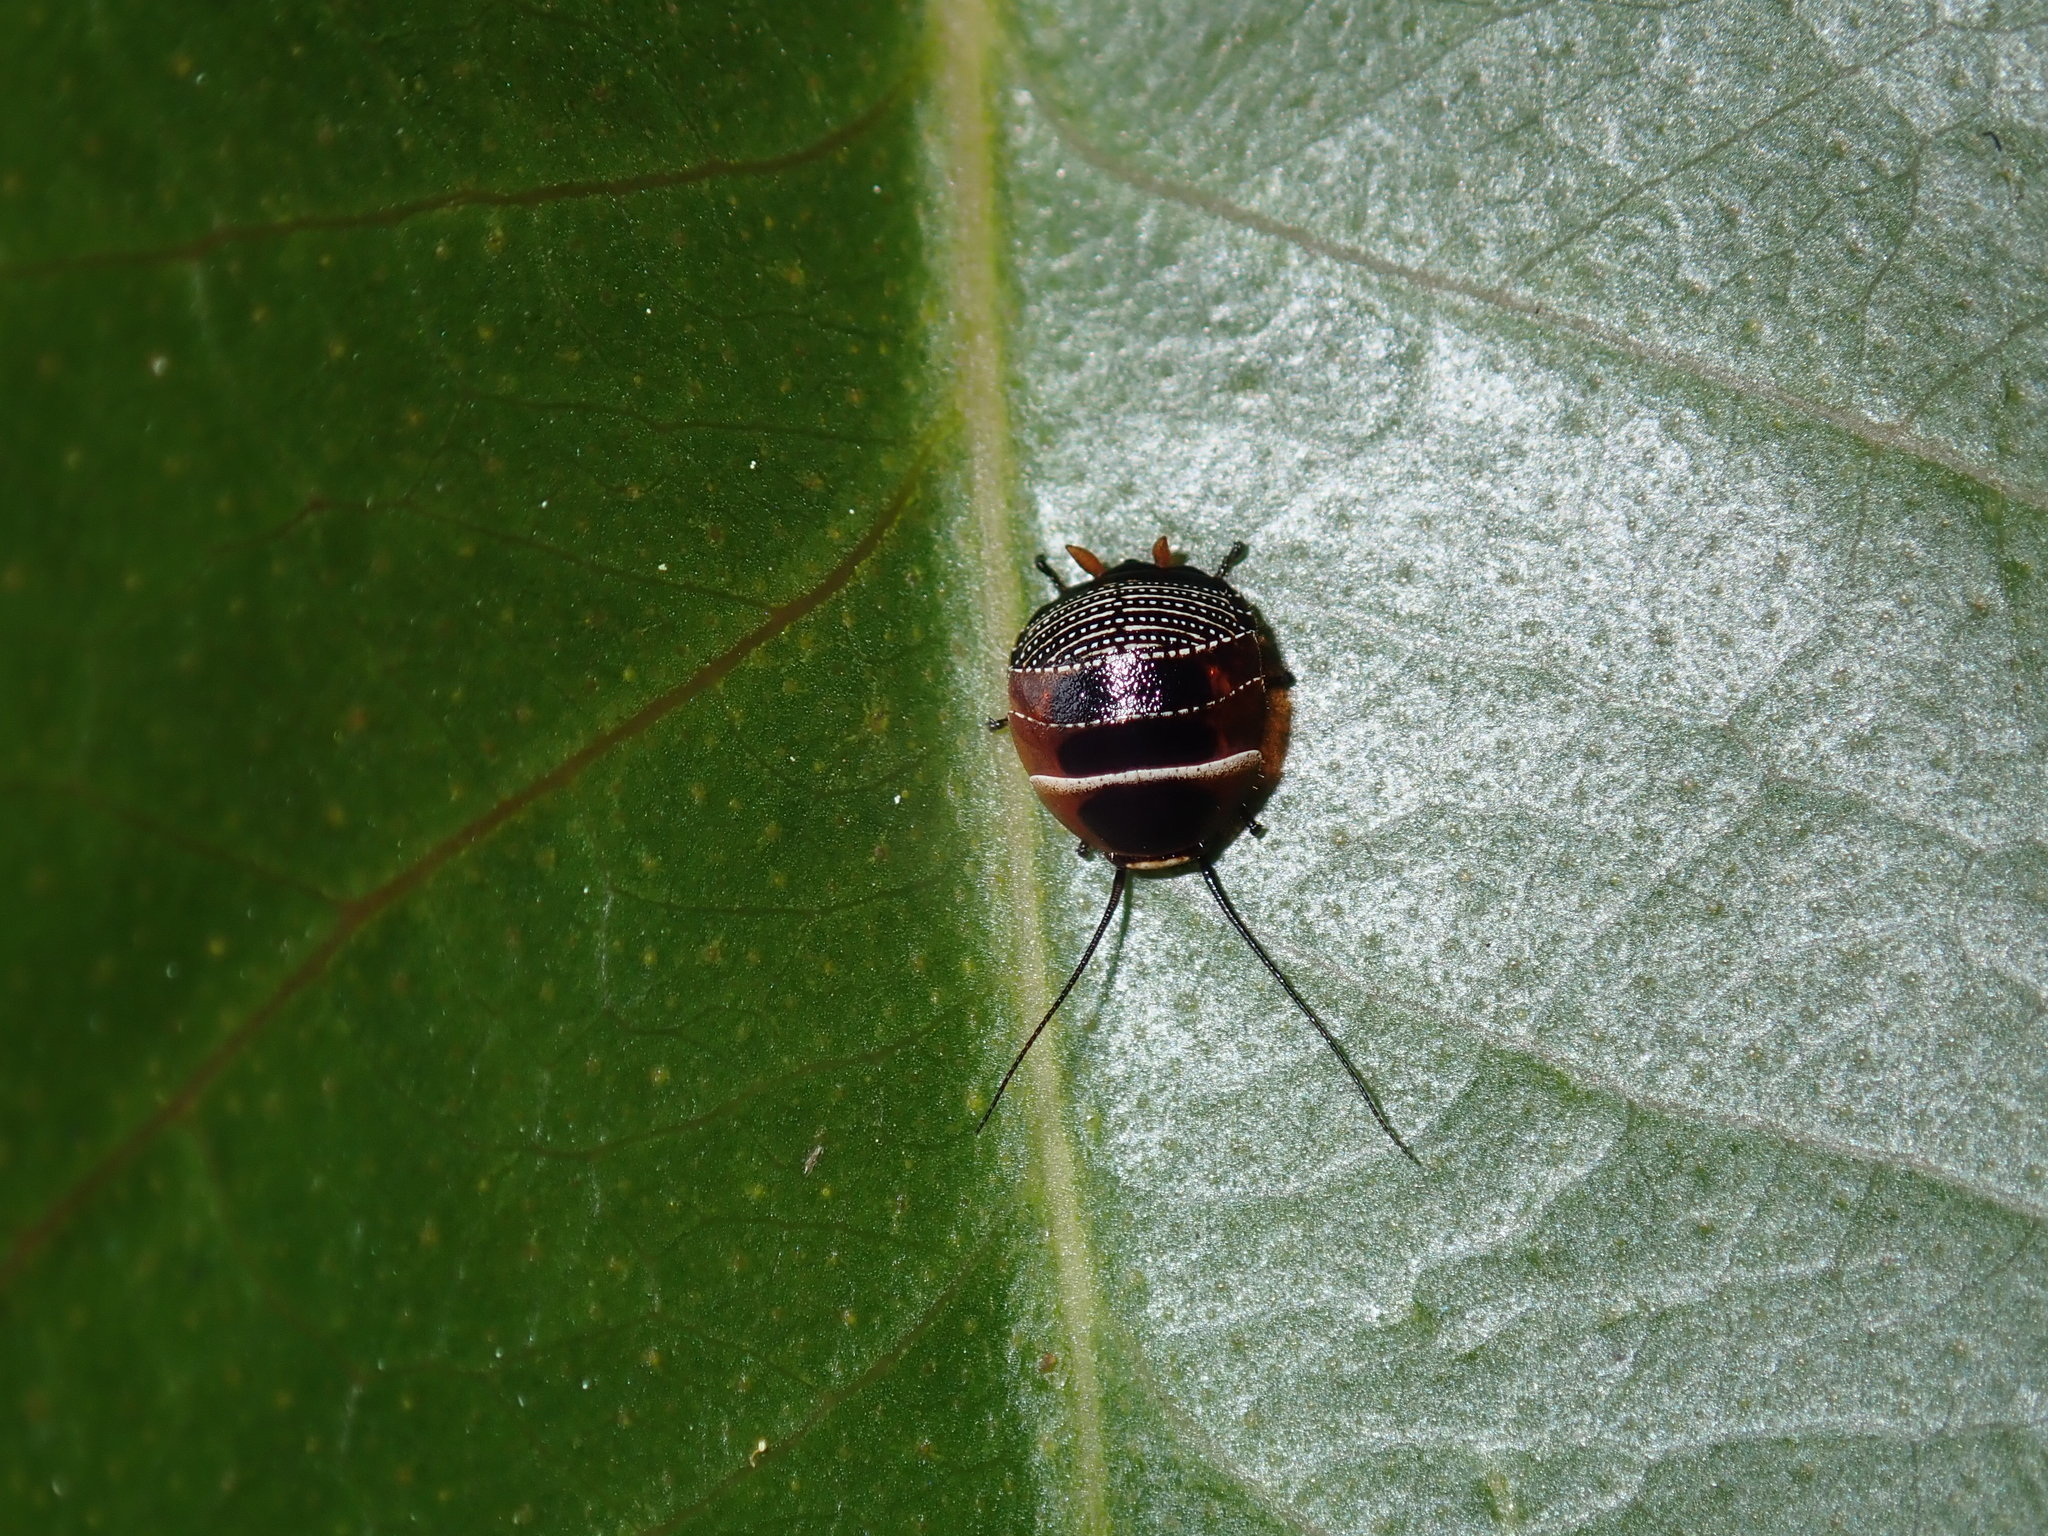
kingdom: Animalia
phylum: Arthropoda
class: Insecta
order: Blattodea
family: Ectobiidae
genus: Ellipsidion
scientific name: Ellipsidion australe
